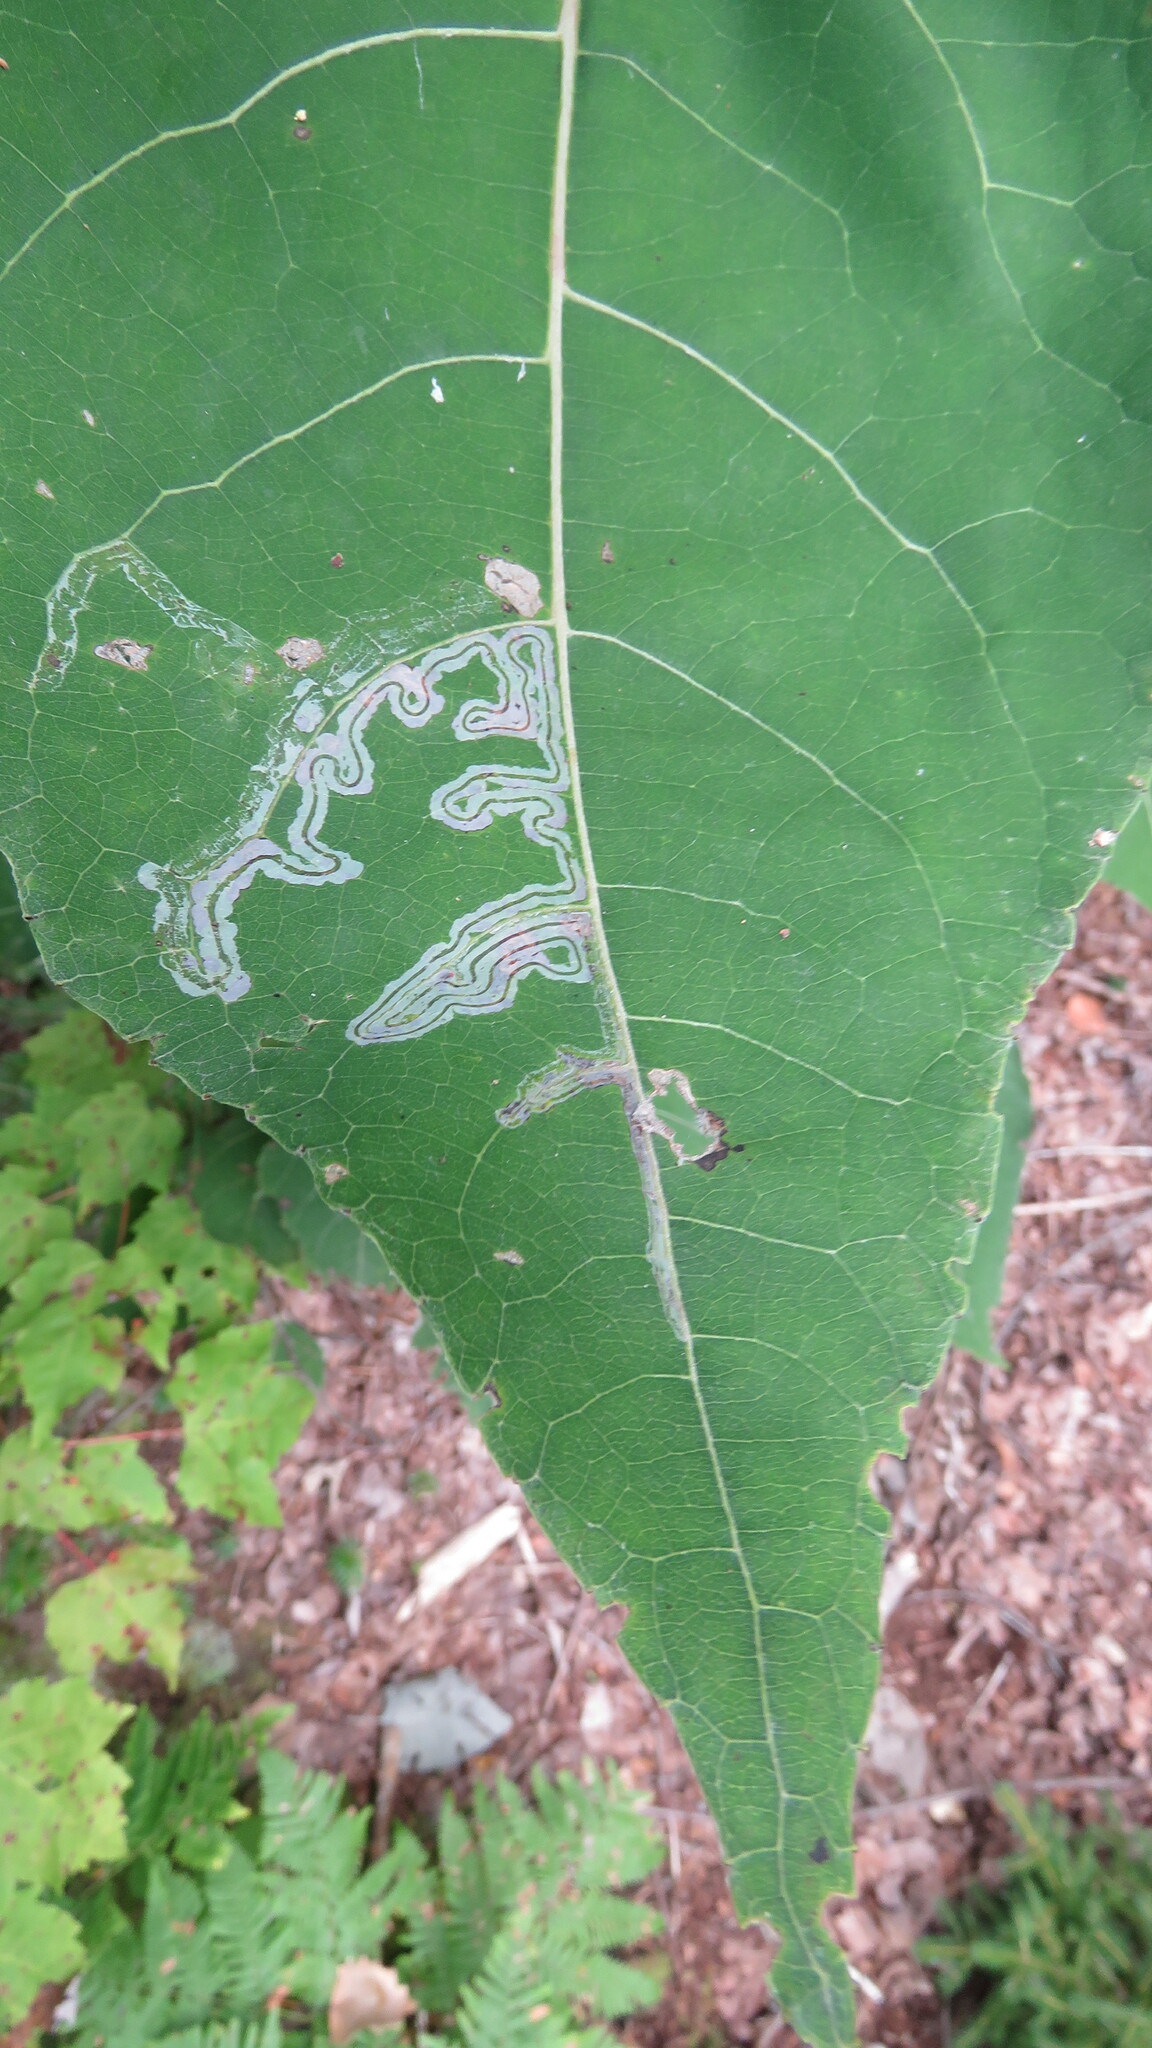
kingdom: Animalia
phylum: Arthropoda
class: Insecta
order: Lepidoptera
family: Gracillariidae
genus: Phyllocnistis
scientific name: Phyllocnistis populiella
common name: Aspen serpentine leafminer moth
